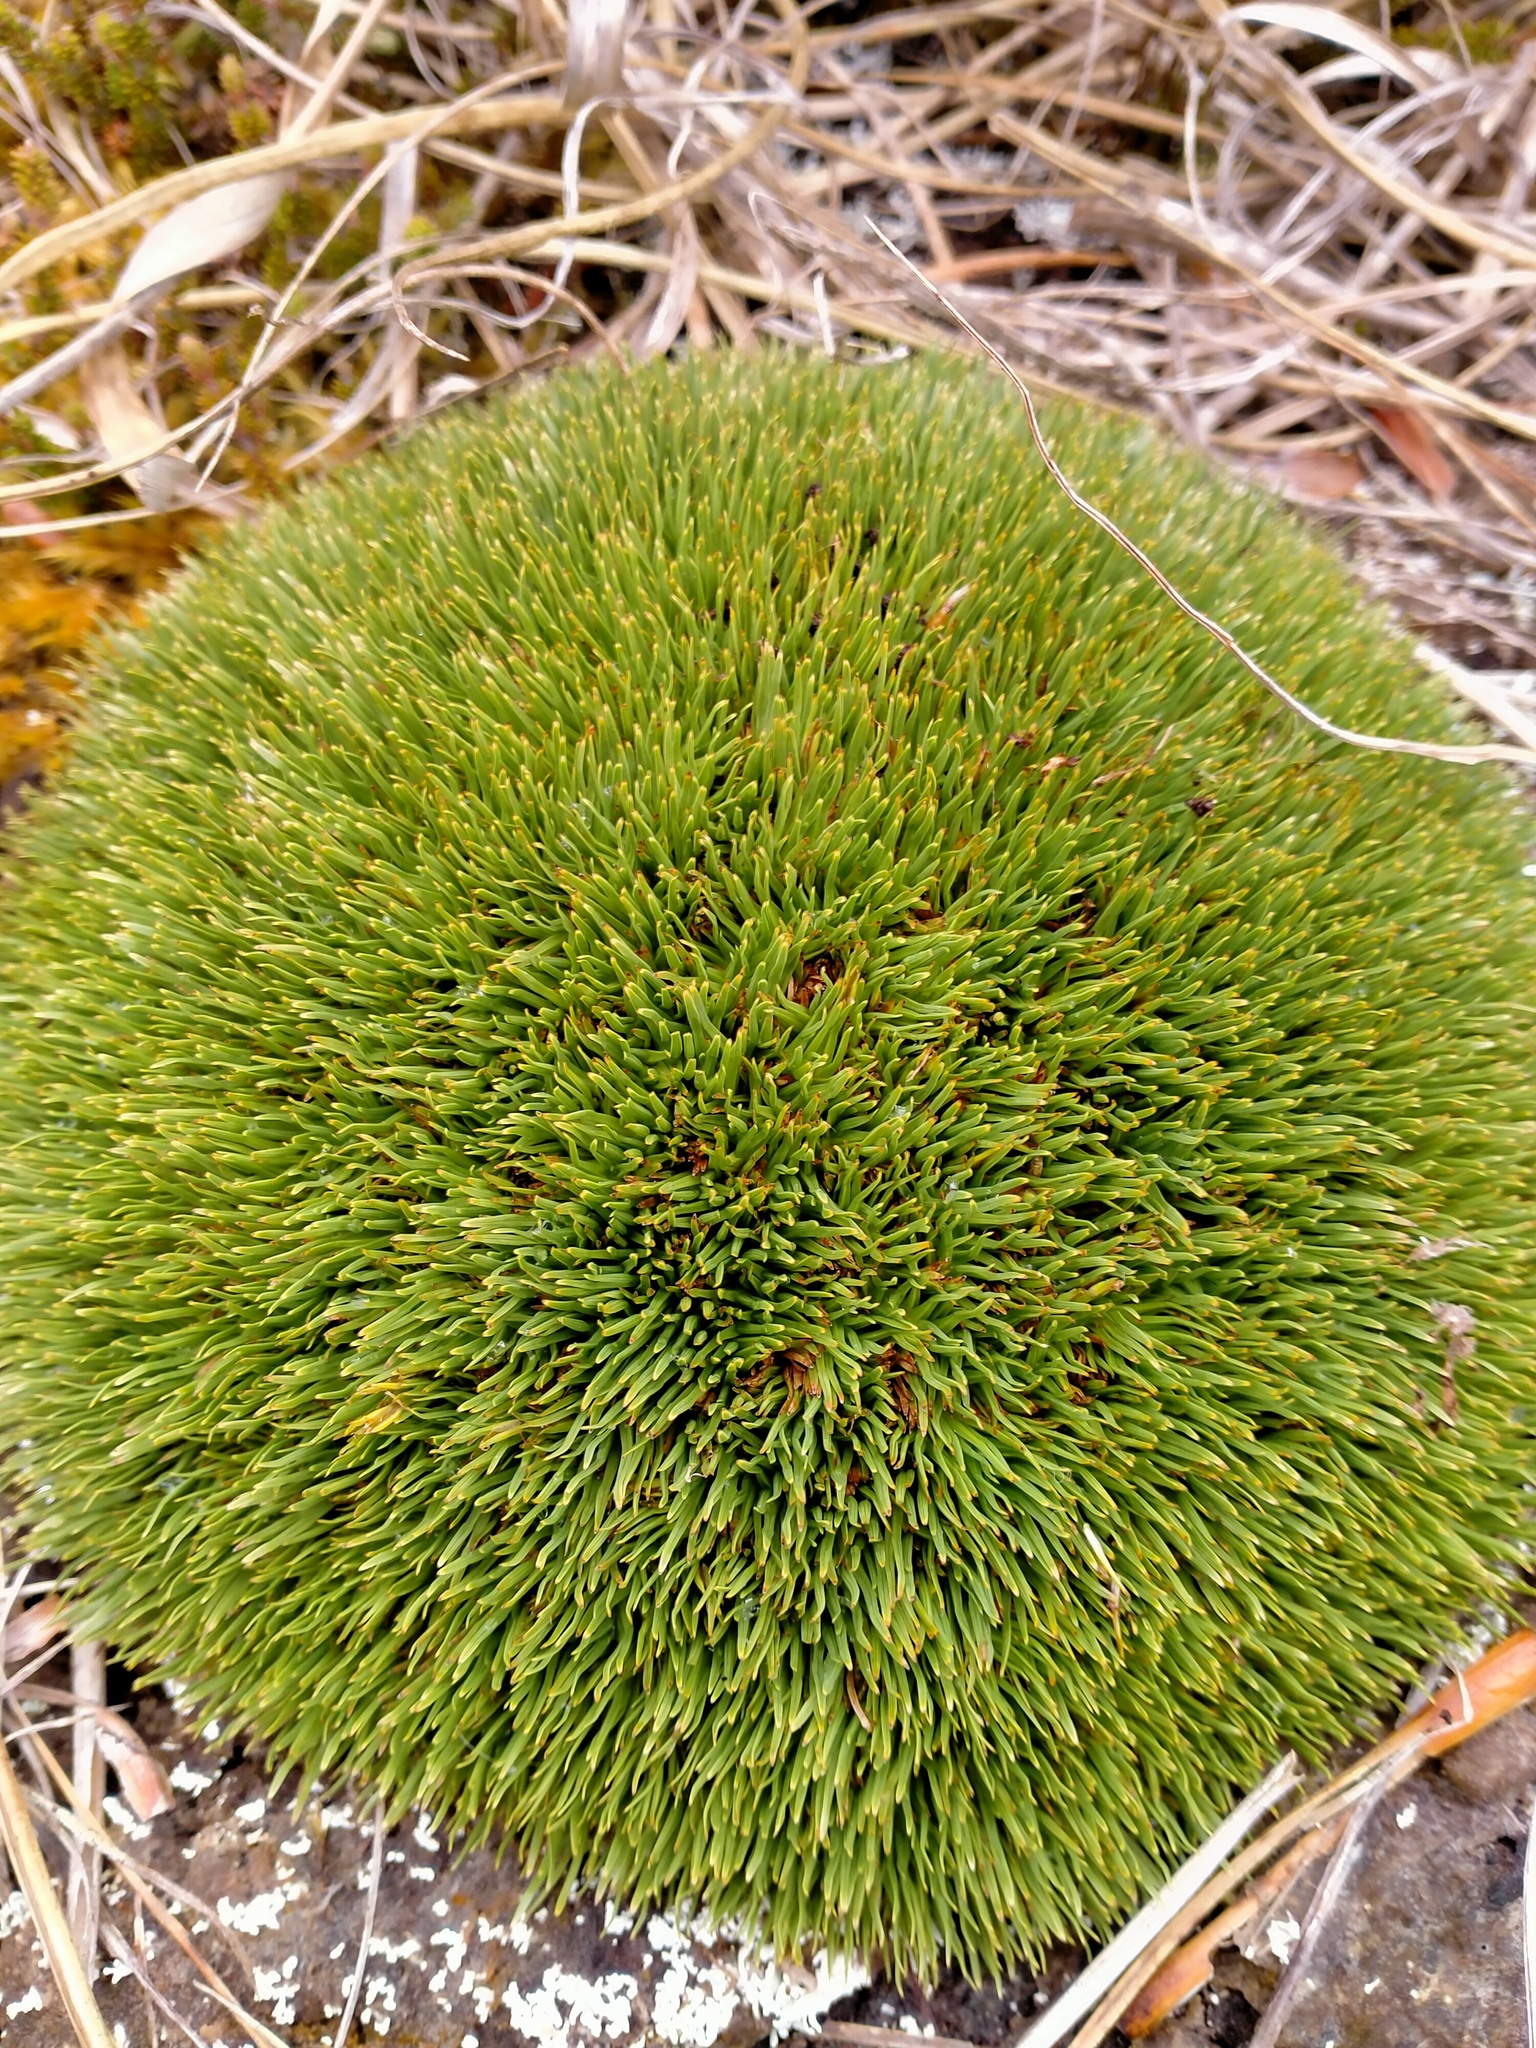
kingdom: Plantae
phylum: Tracheophyta
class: Liliopsida
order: Poales
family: Cyperaceae
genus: Oreobolus
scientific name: Oreobolus pectinatus
